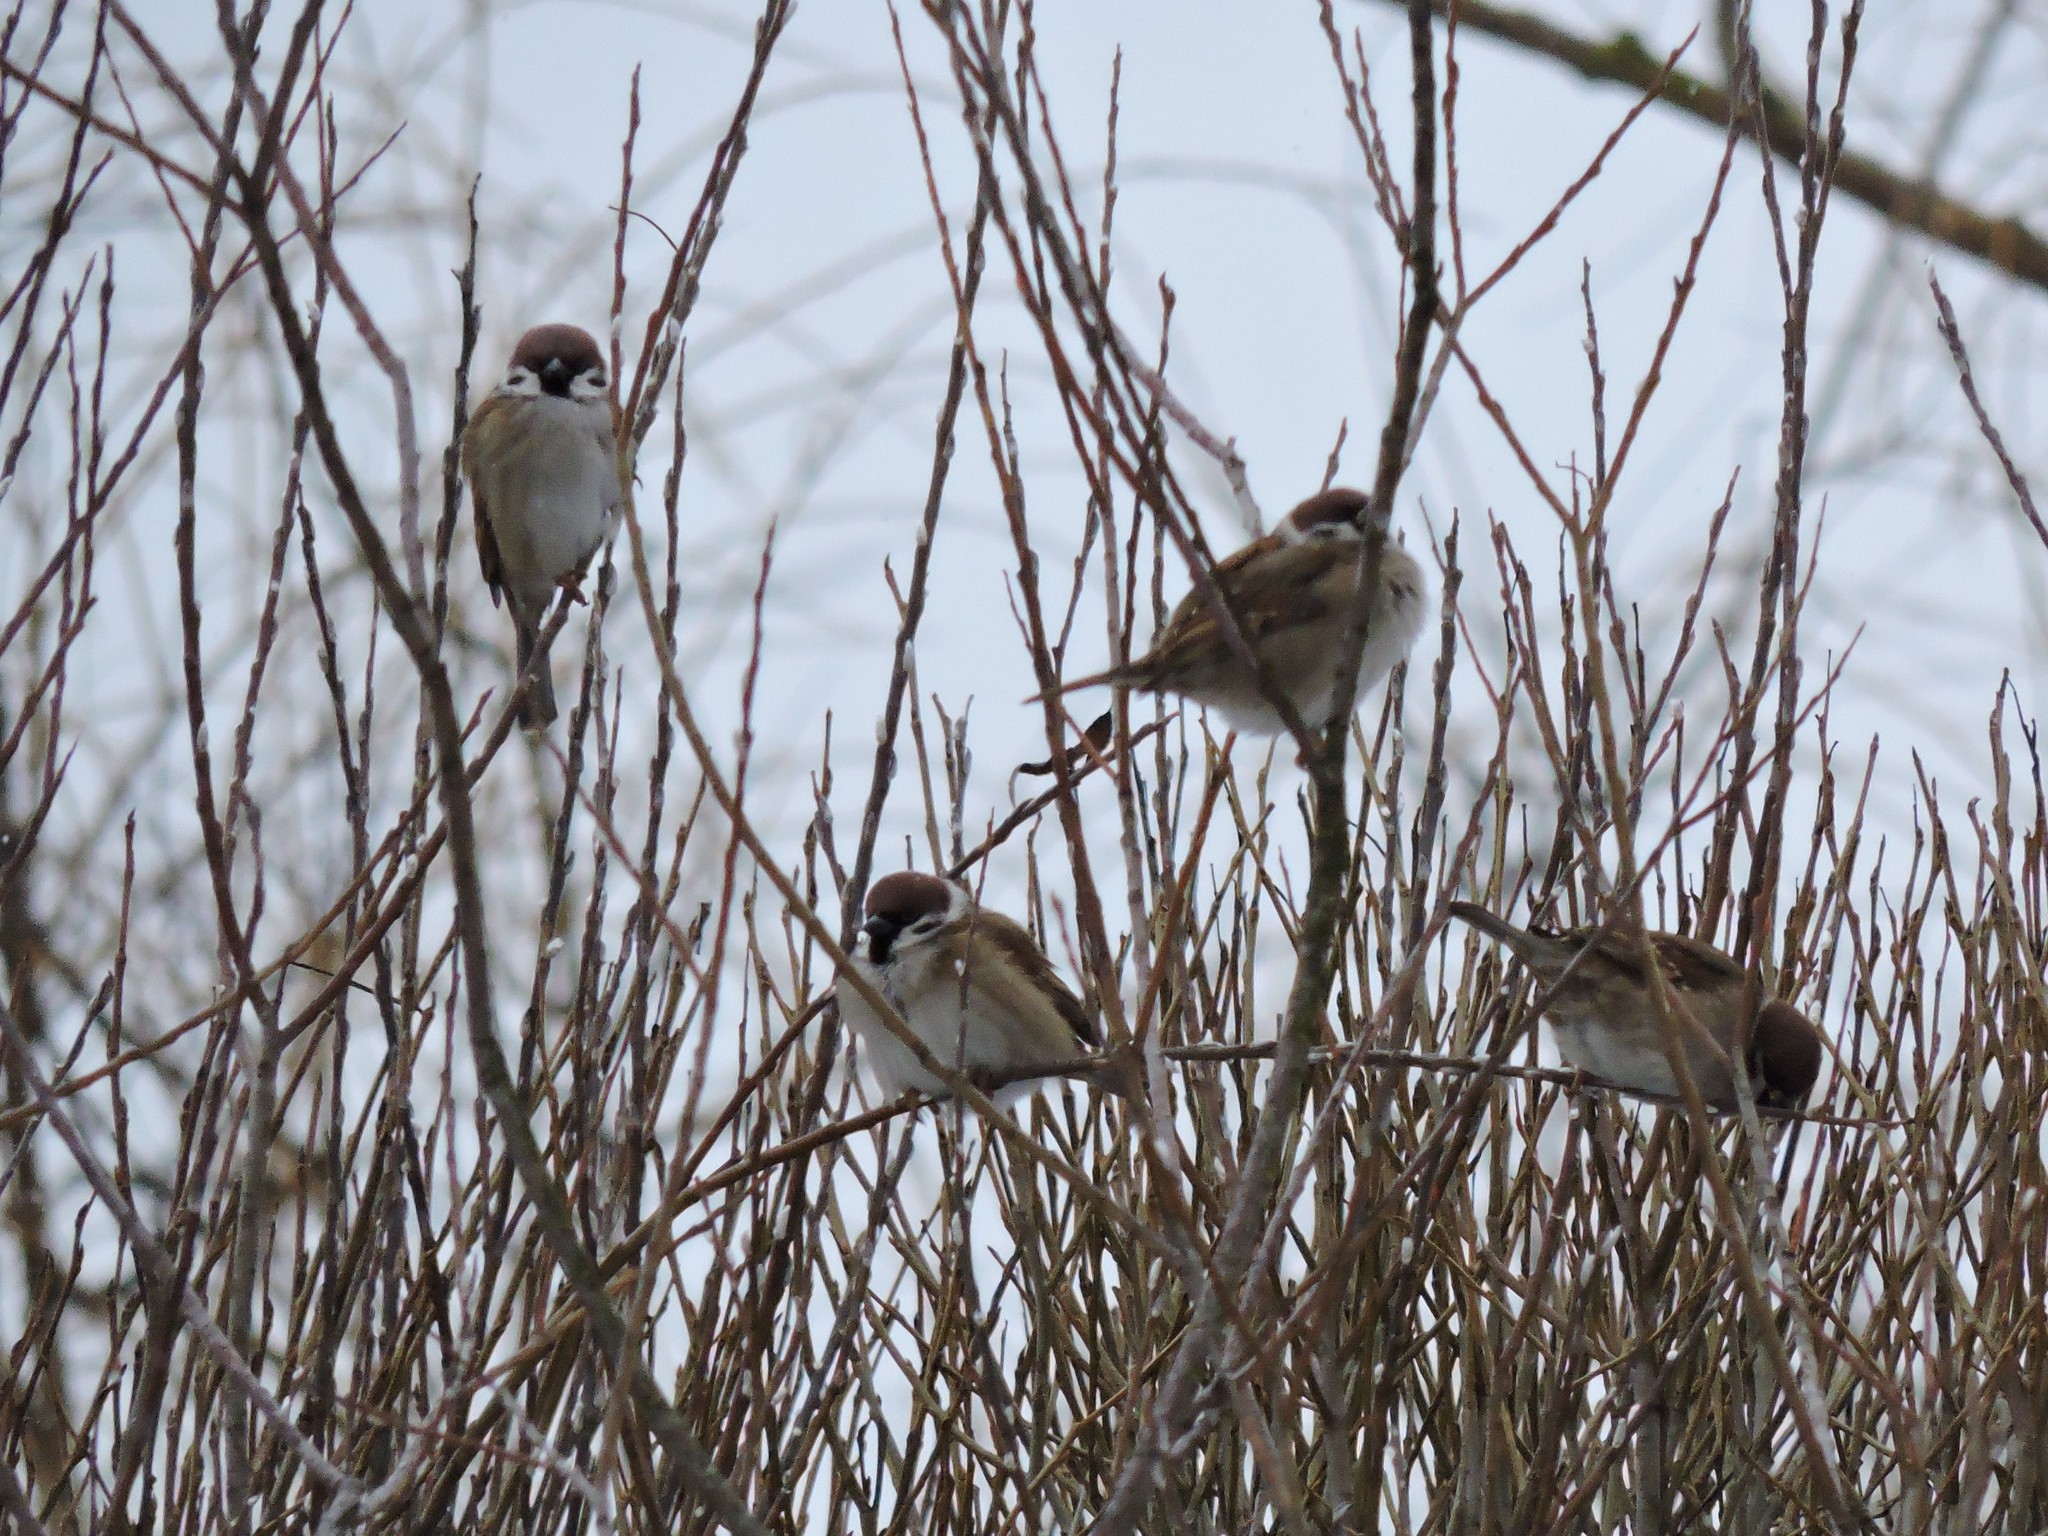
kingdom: Animalia
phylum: Chordata
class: Aves
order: Passeriformes
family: Passeridae
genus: Passer
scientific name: Passer montanus
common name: Eurasian tree sparrow
